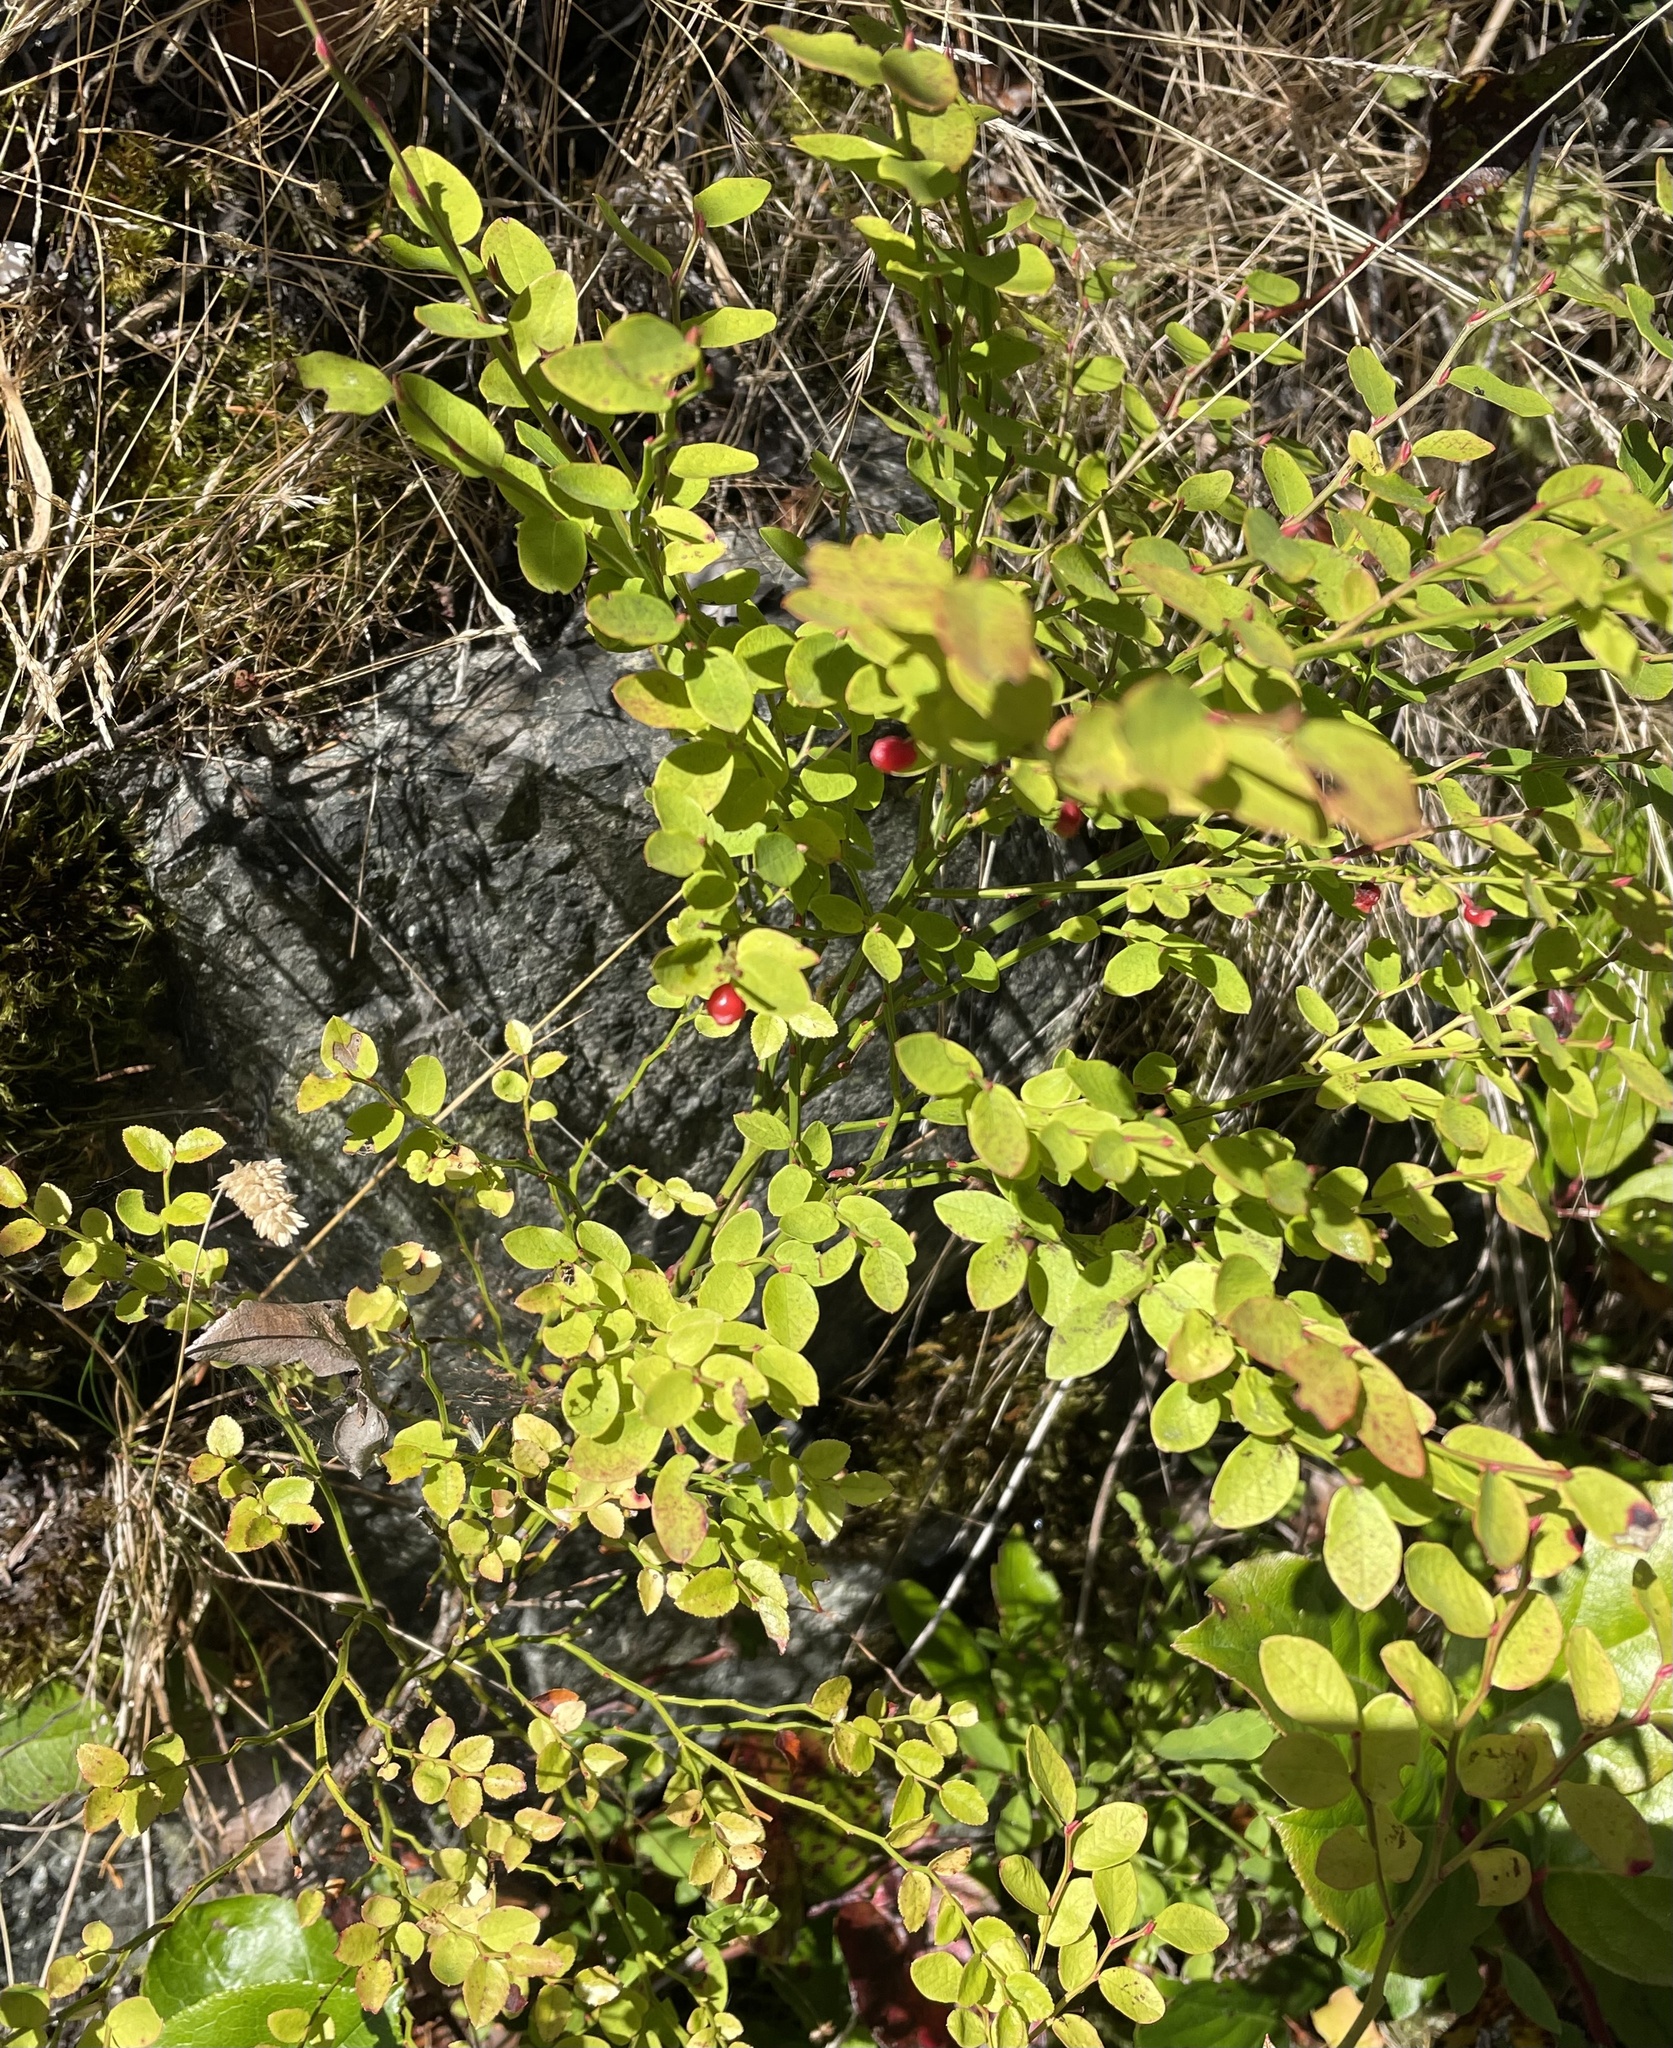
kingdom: Plantae
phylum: Tracheophyta
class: Magnoliopsida
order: Ericales
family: Ericaceae
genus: Vaccinium
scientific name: Vaccinium parvifolium
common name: Red-huckleberry
